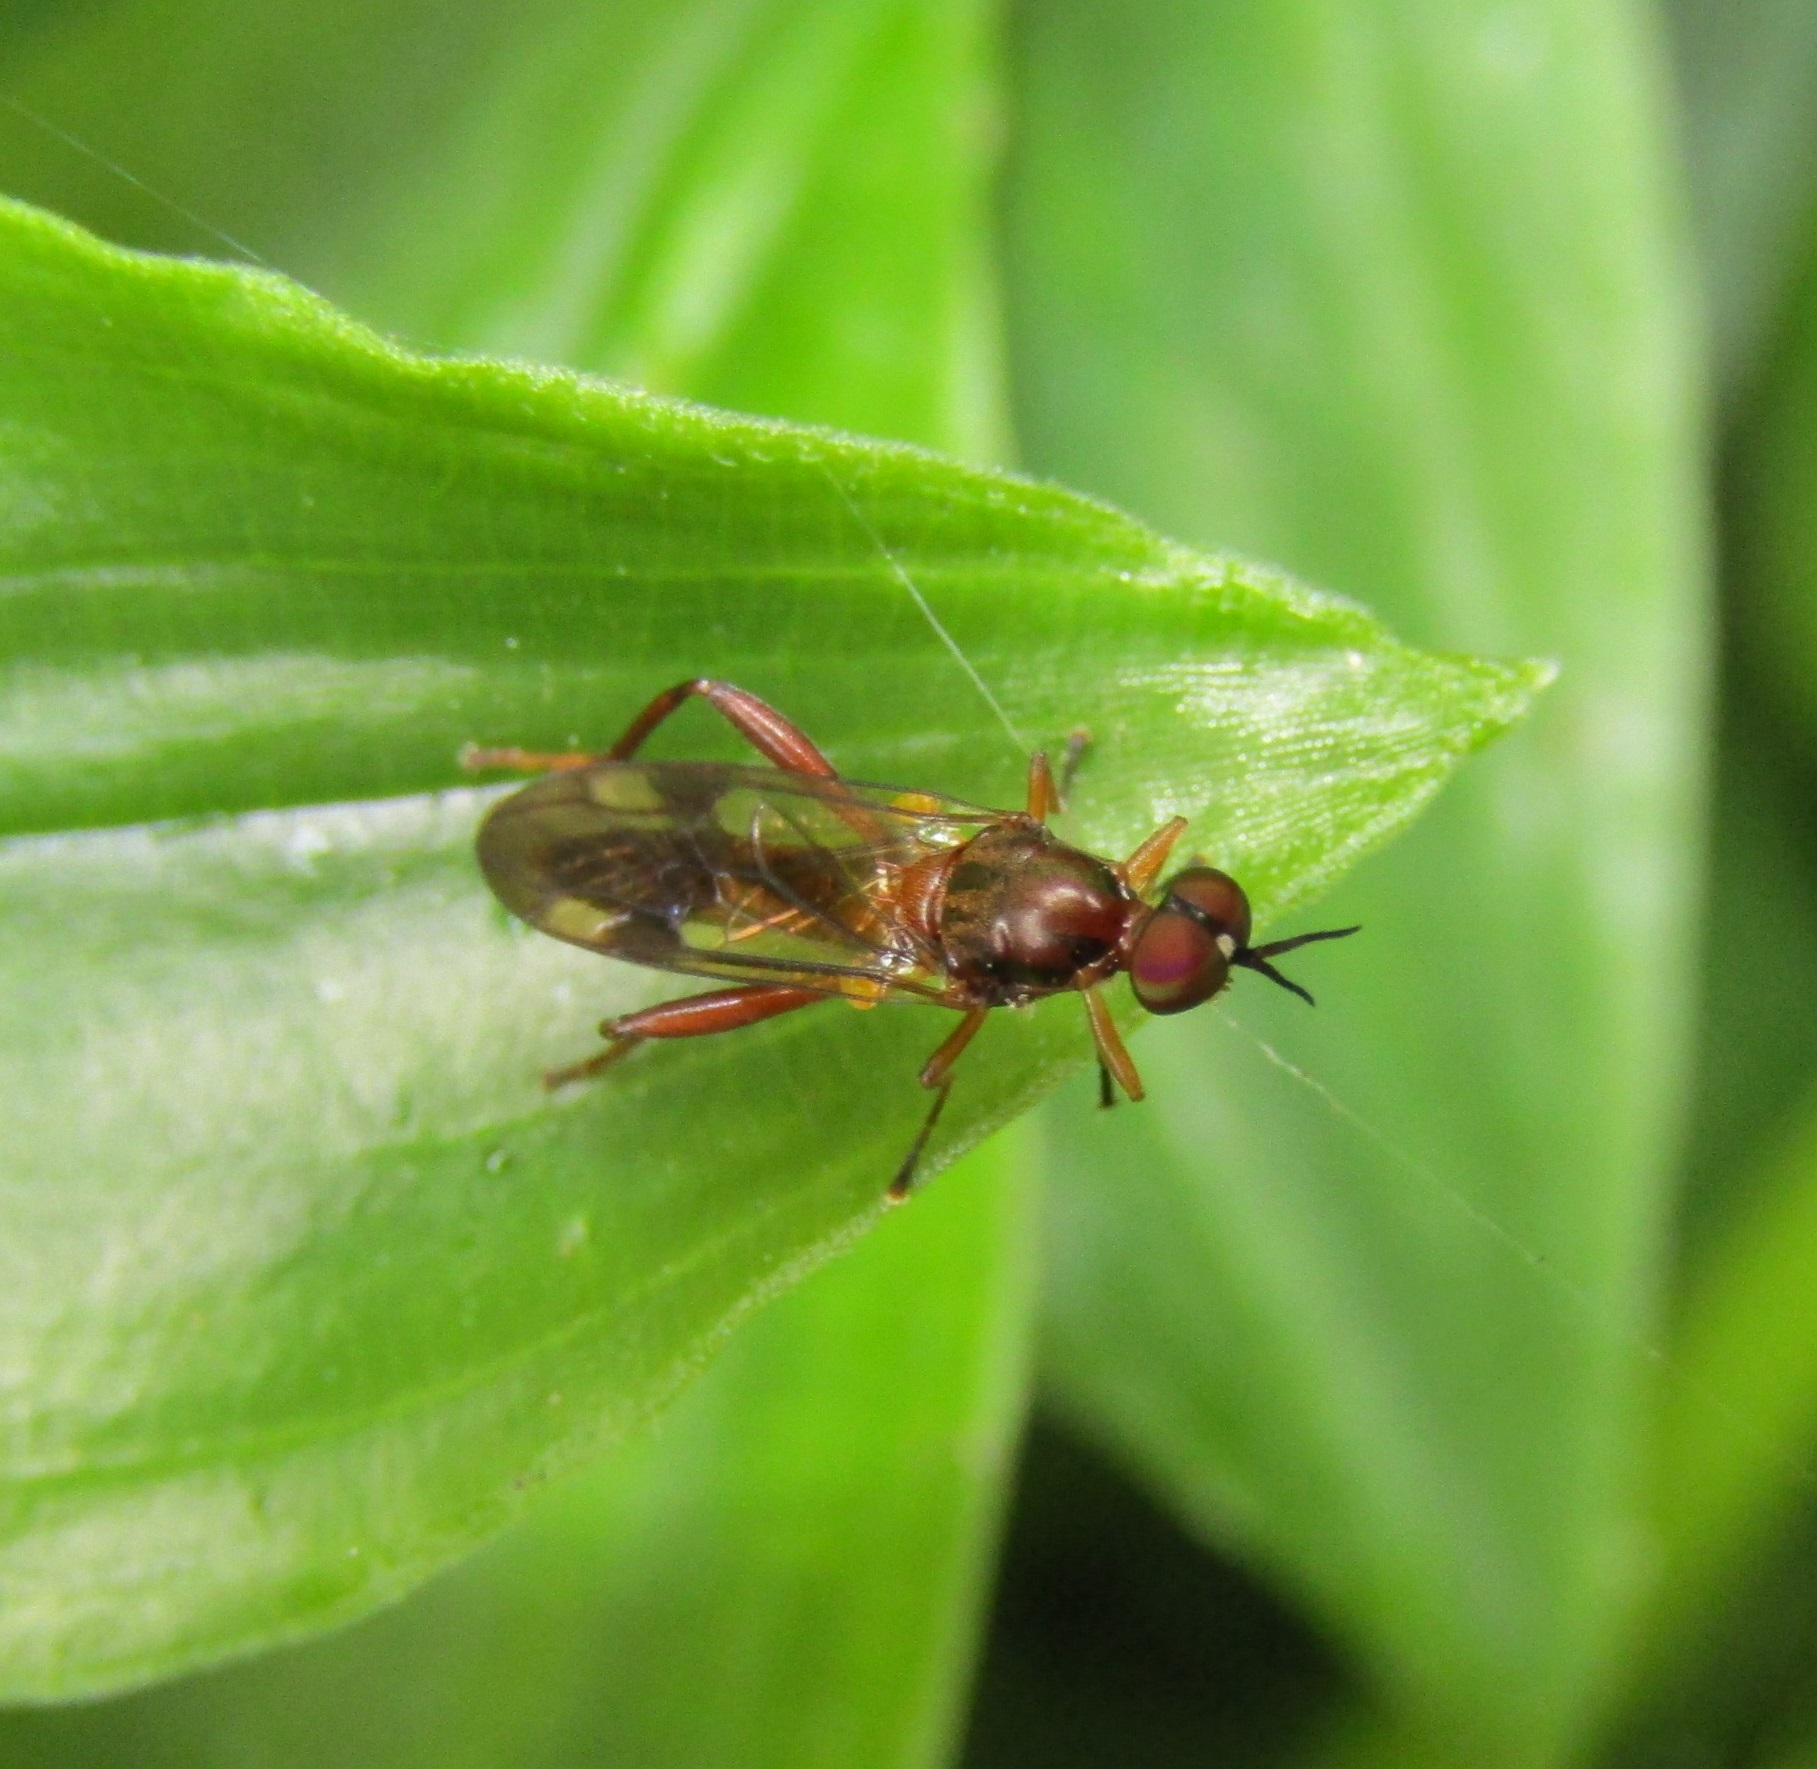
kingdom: Animalia
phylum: Arthropoda
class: Insecta
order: Diptera
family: Stratiomyidae
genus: Benhamyia
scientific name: Benhamyia straznitzkii
